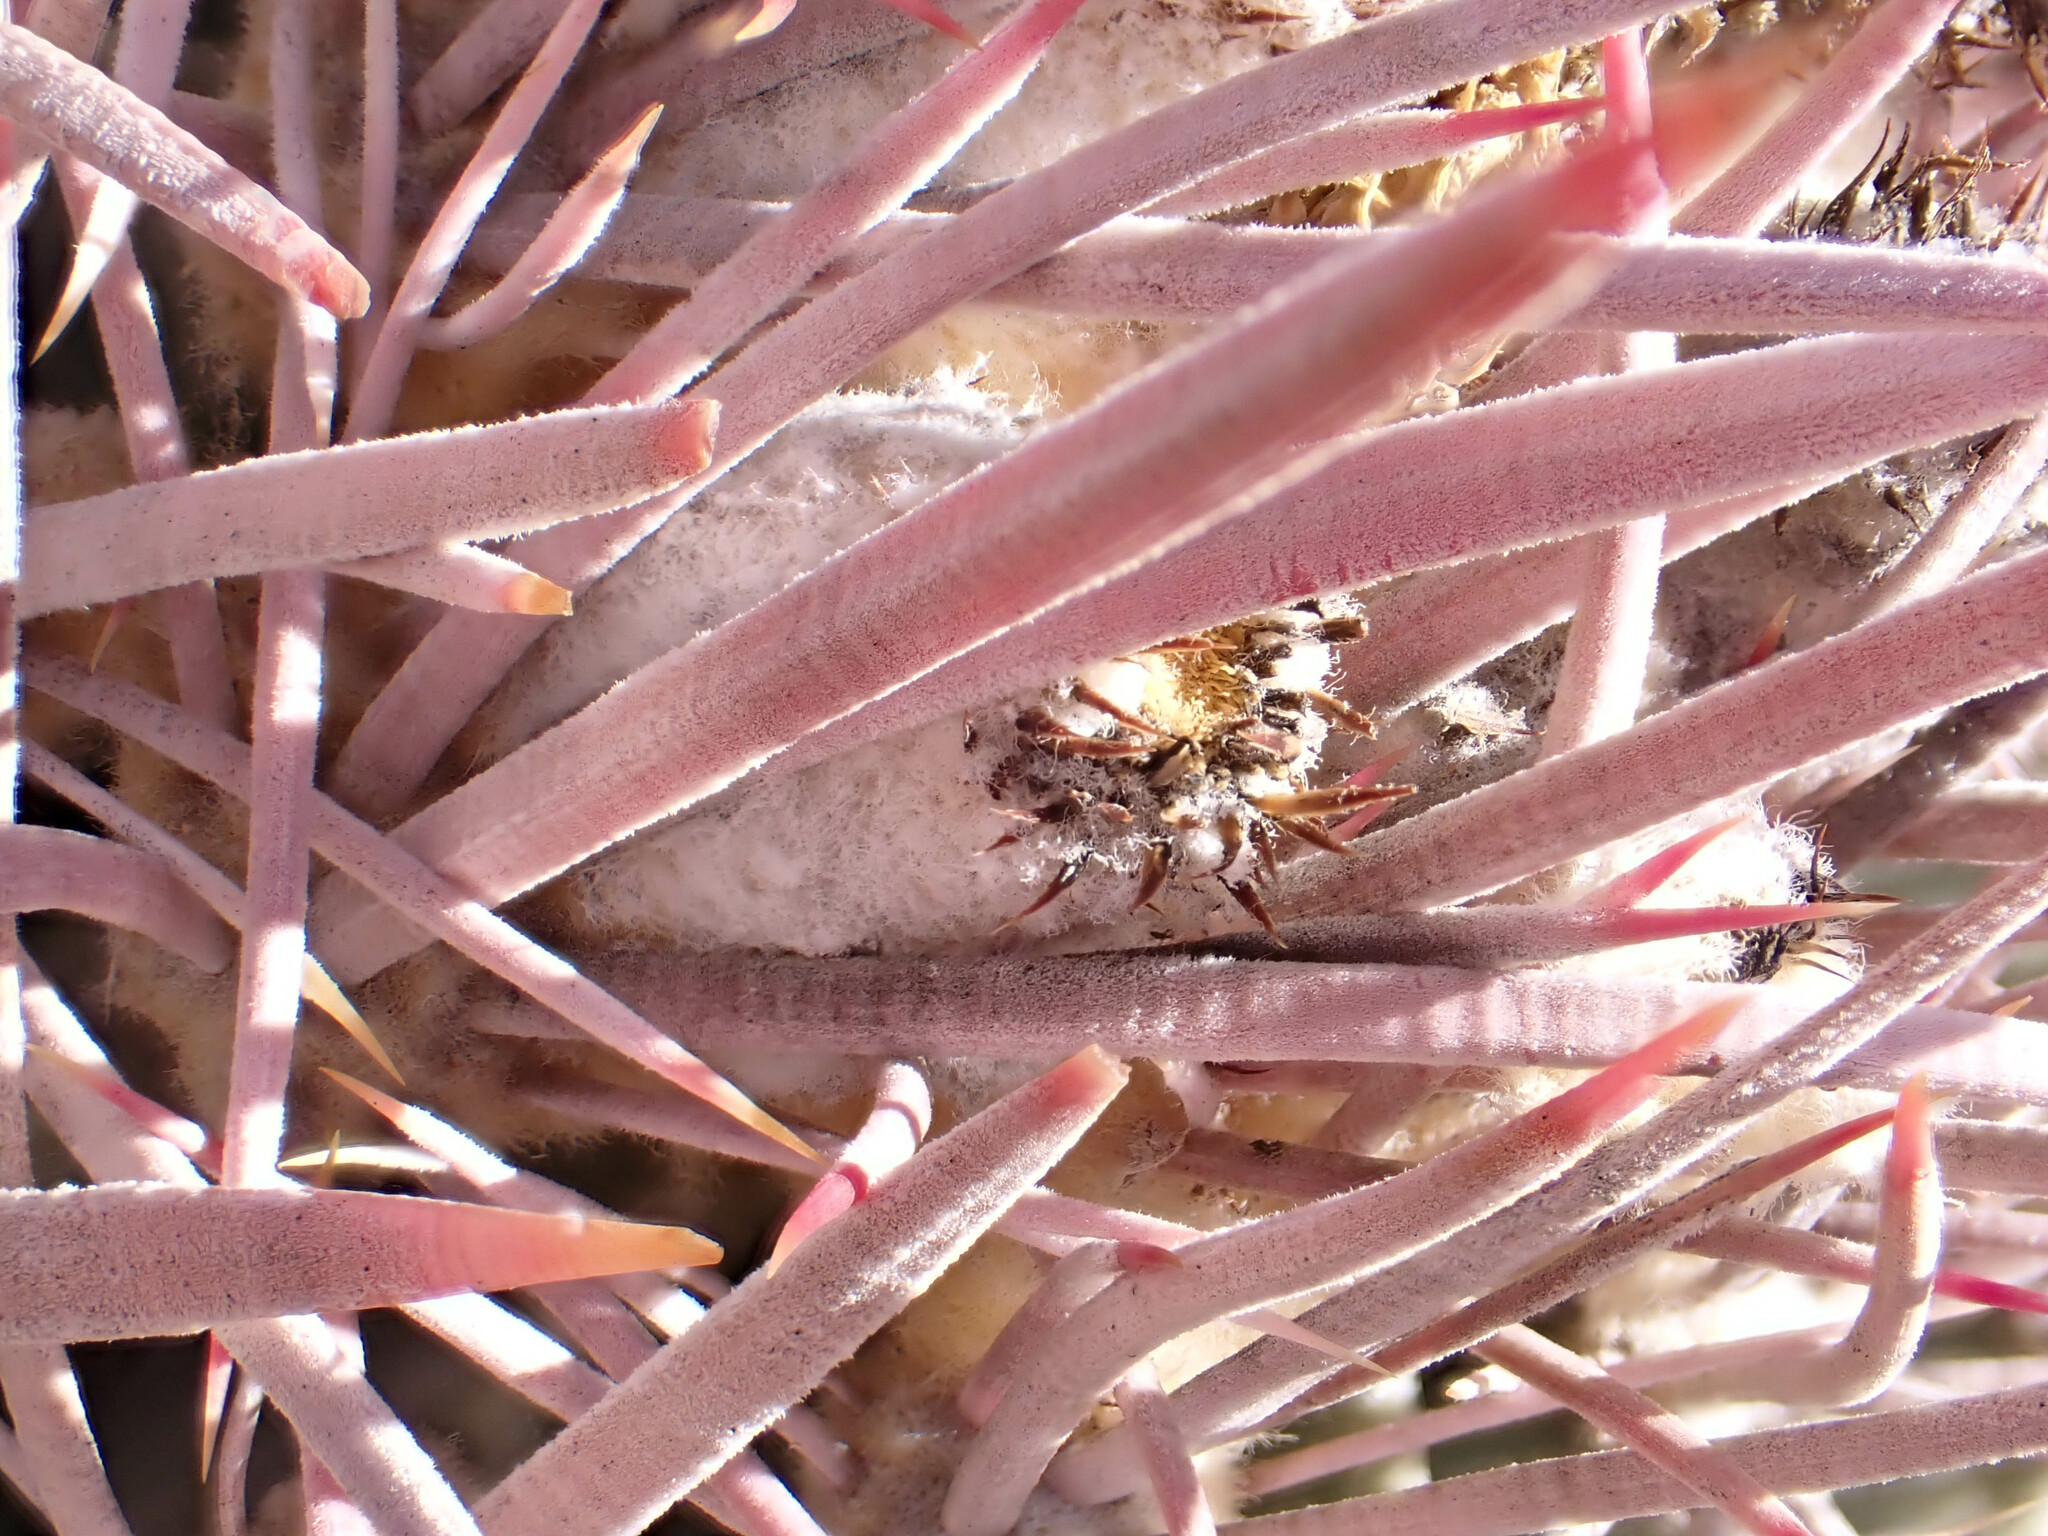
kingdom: Plantae
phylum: Tracheophyta
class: Magnoliopsida
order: Caryophyllales
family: Cactaceae
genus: Echinocactus
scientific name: Echinocactus polycephalus
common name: Cottontop cactus
